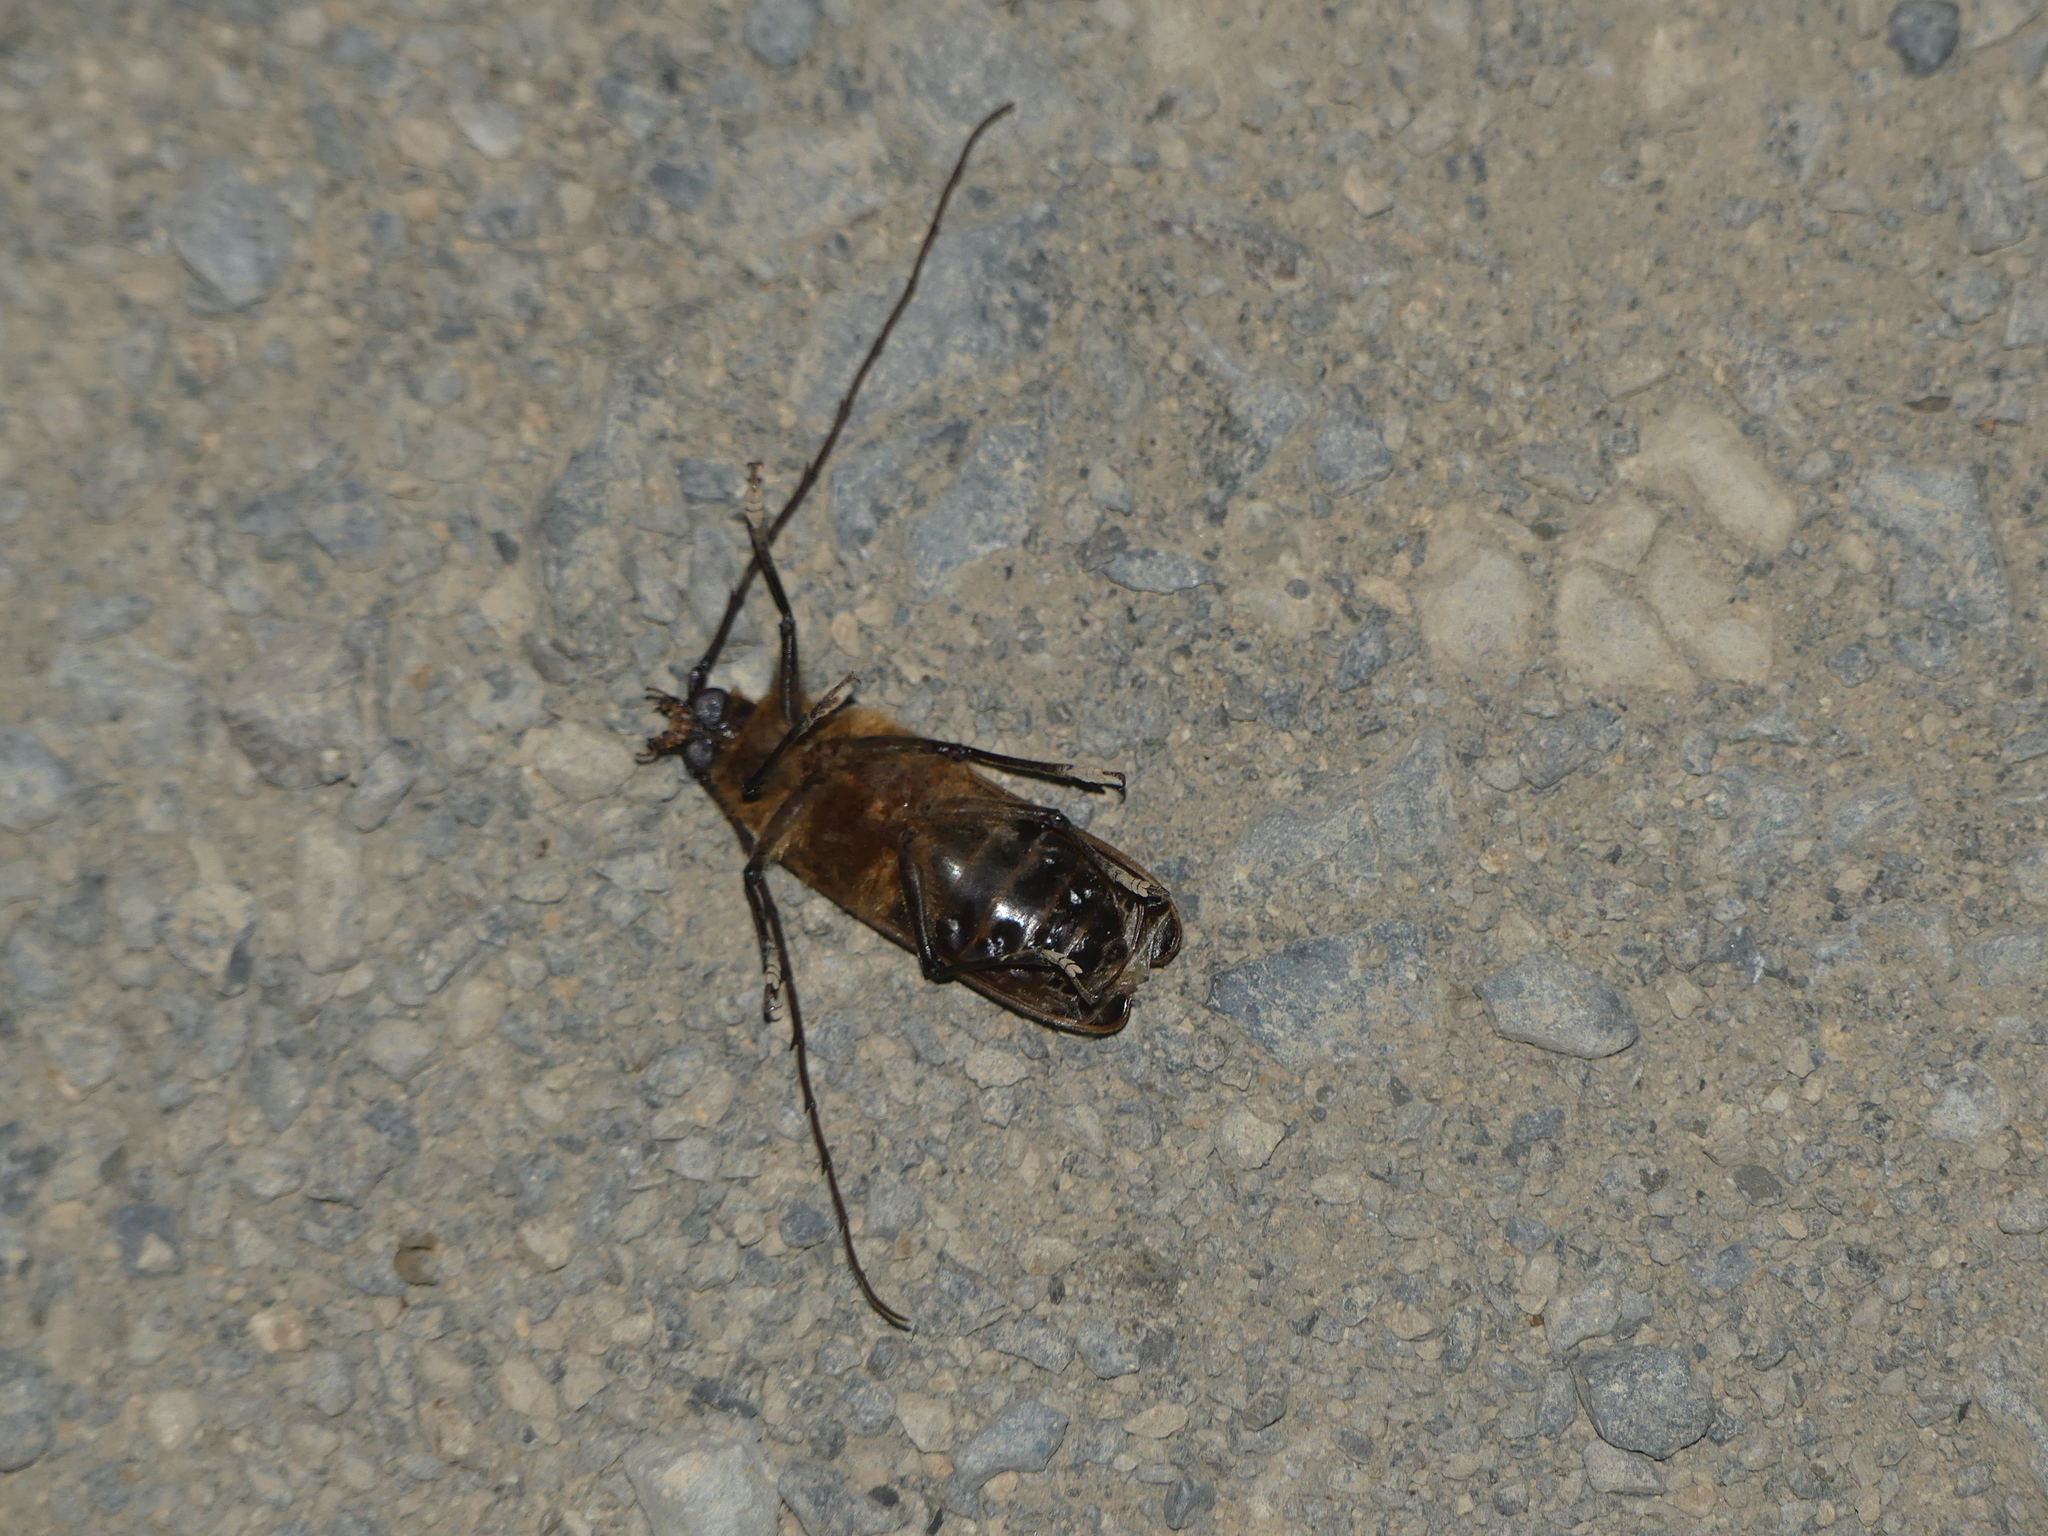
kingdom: Animalia
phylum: Arthropoda
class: Insecta
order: Coleoptera
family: Cerambycidae
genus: Prionoplus
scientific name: Prionoplus reticularis
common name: Huhu beetle
